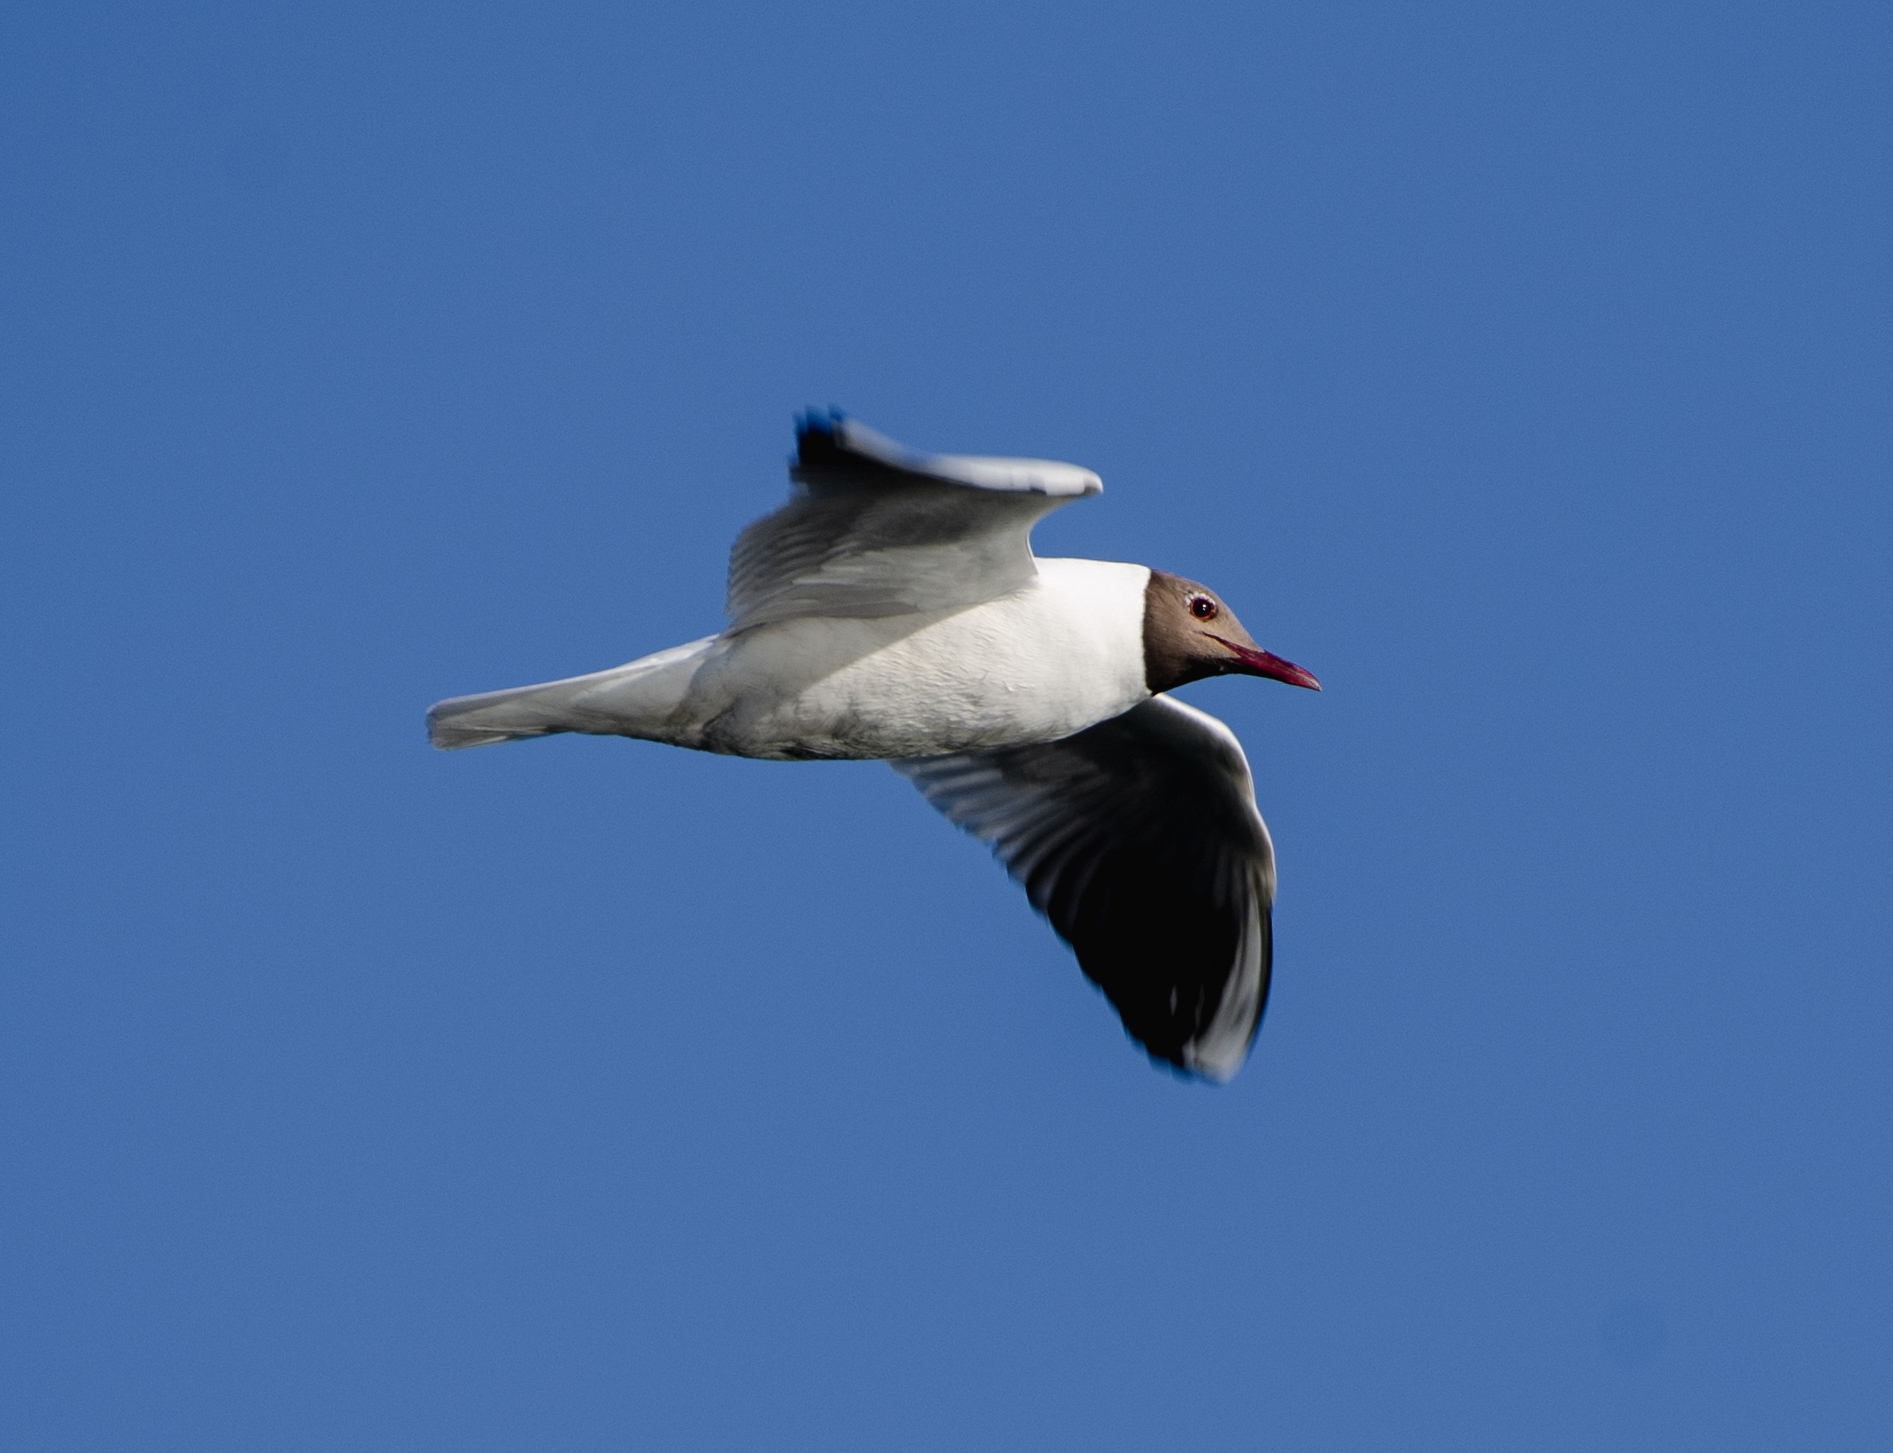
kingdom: Animalia
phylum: Chordata
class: Aves
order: Charadriiformes
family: Laridae
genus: Chroicocephalus
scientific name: Chroicocephalus ridibundus
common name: Black-headed gull
